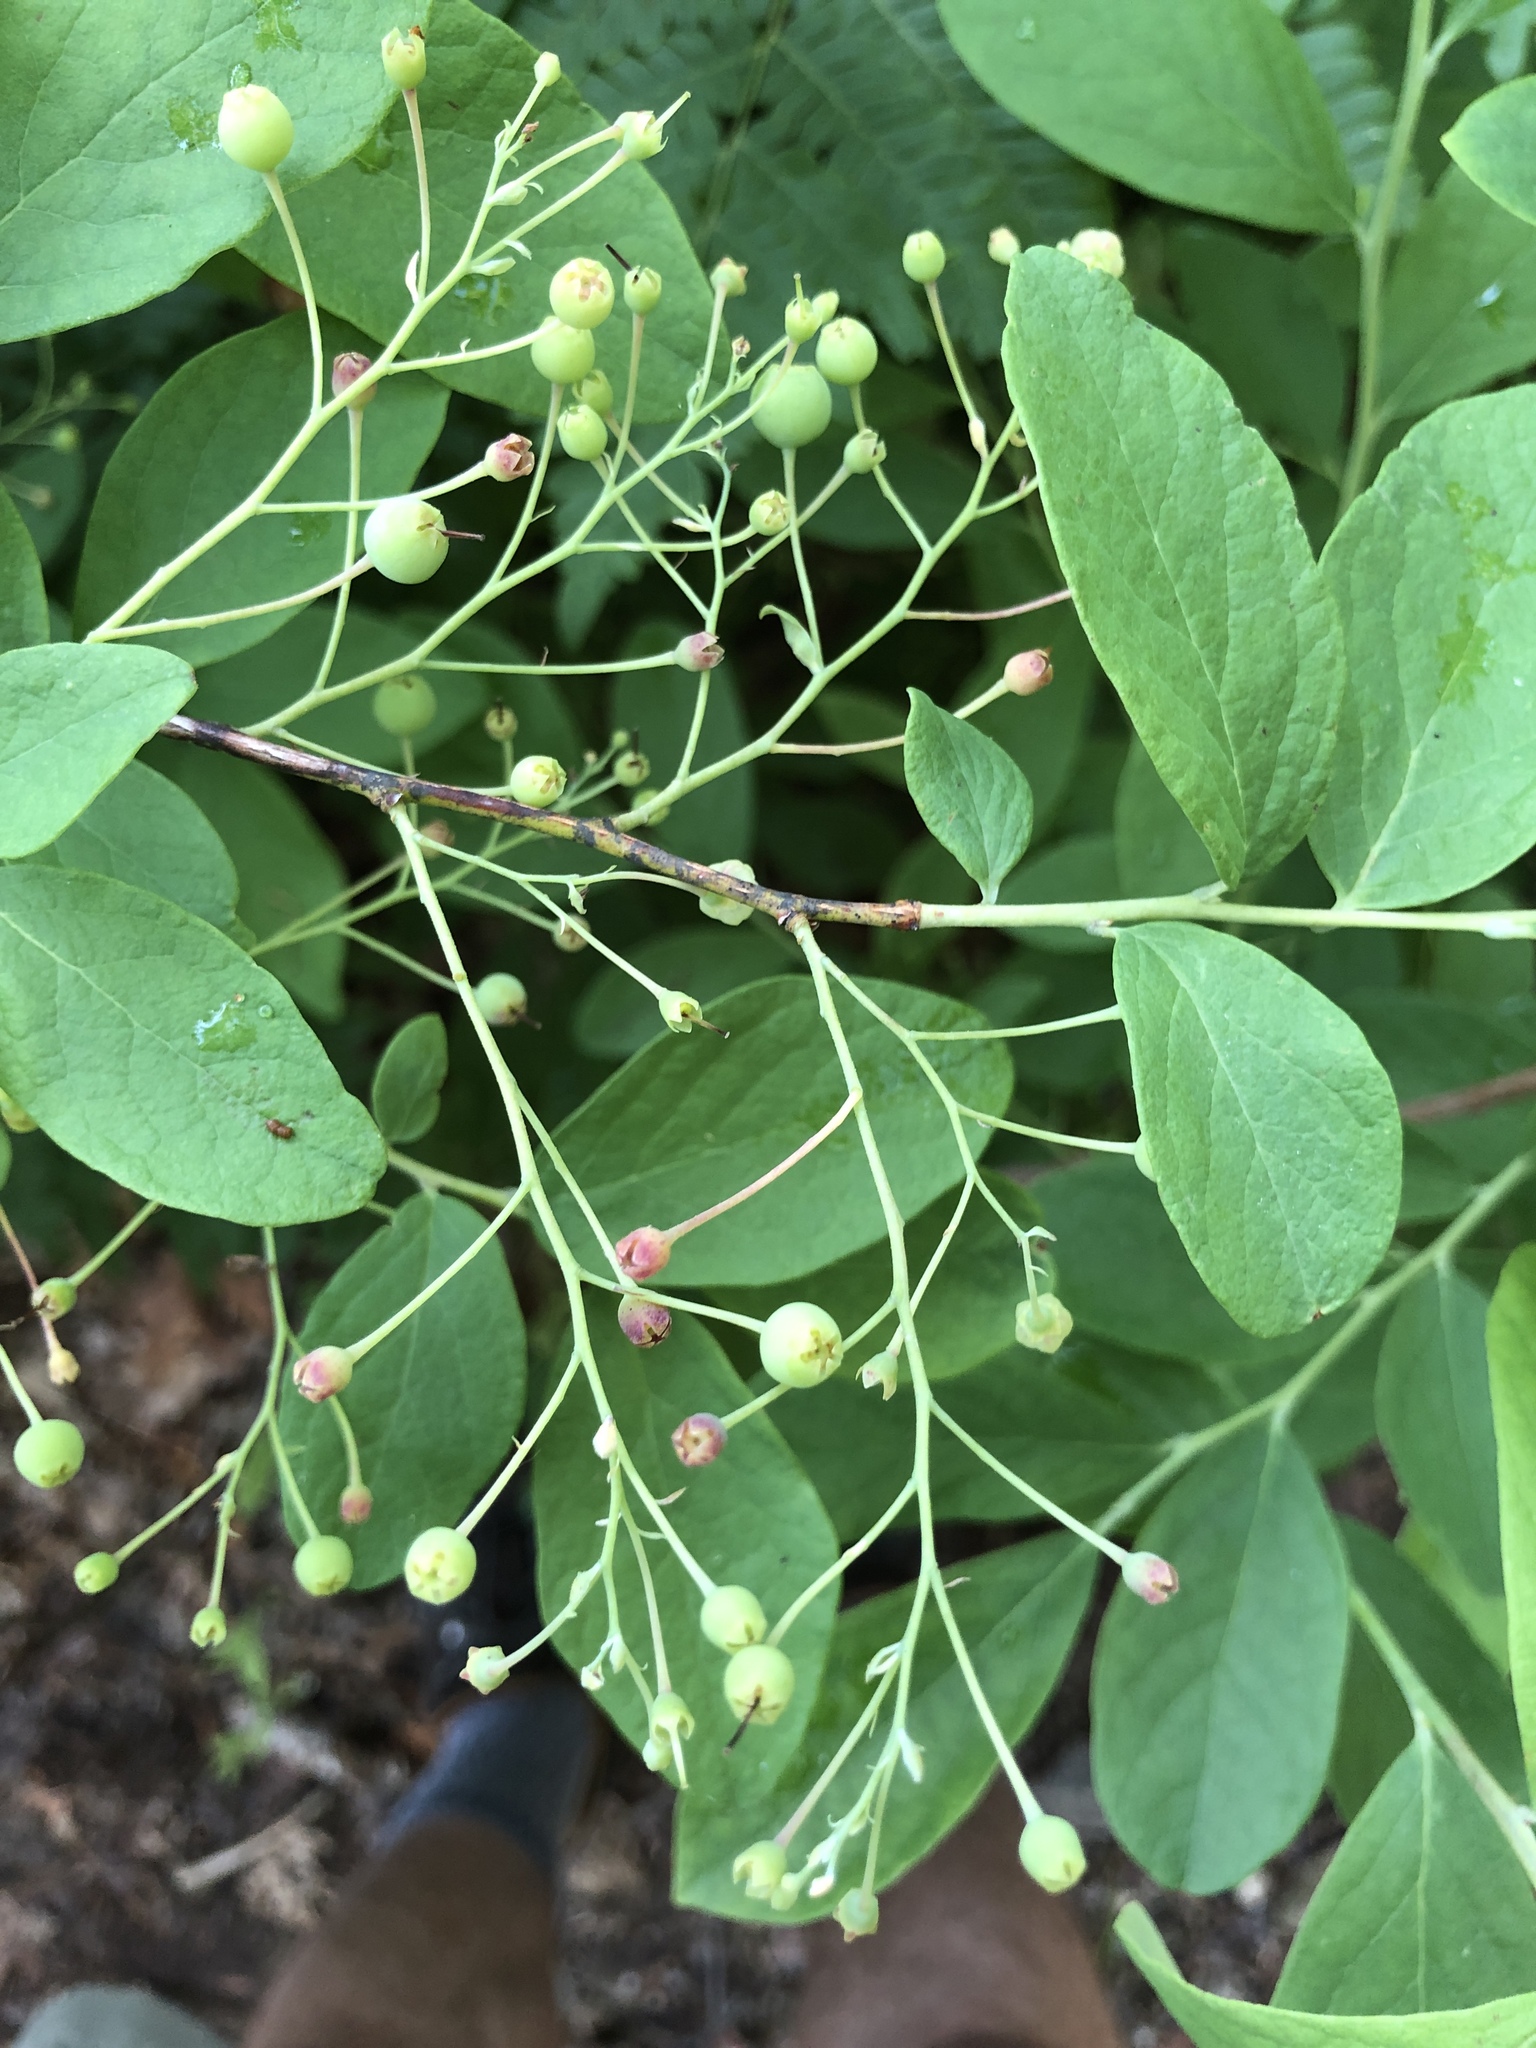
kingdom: Plantae
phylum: Tracheophyta
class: Magnoliopsida
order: Ericales
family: Ericaceae
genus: Gaylussacia
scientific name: Gaylussacia frondosa
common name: Dangleberry
